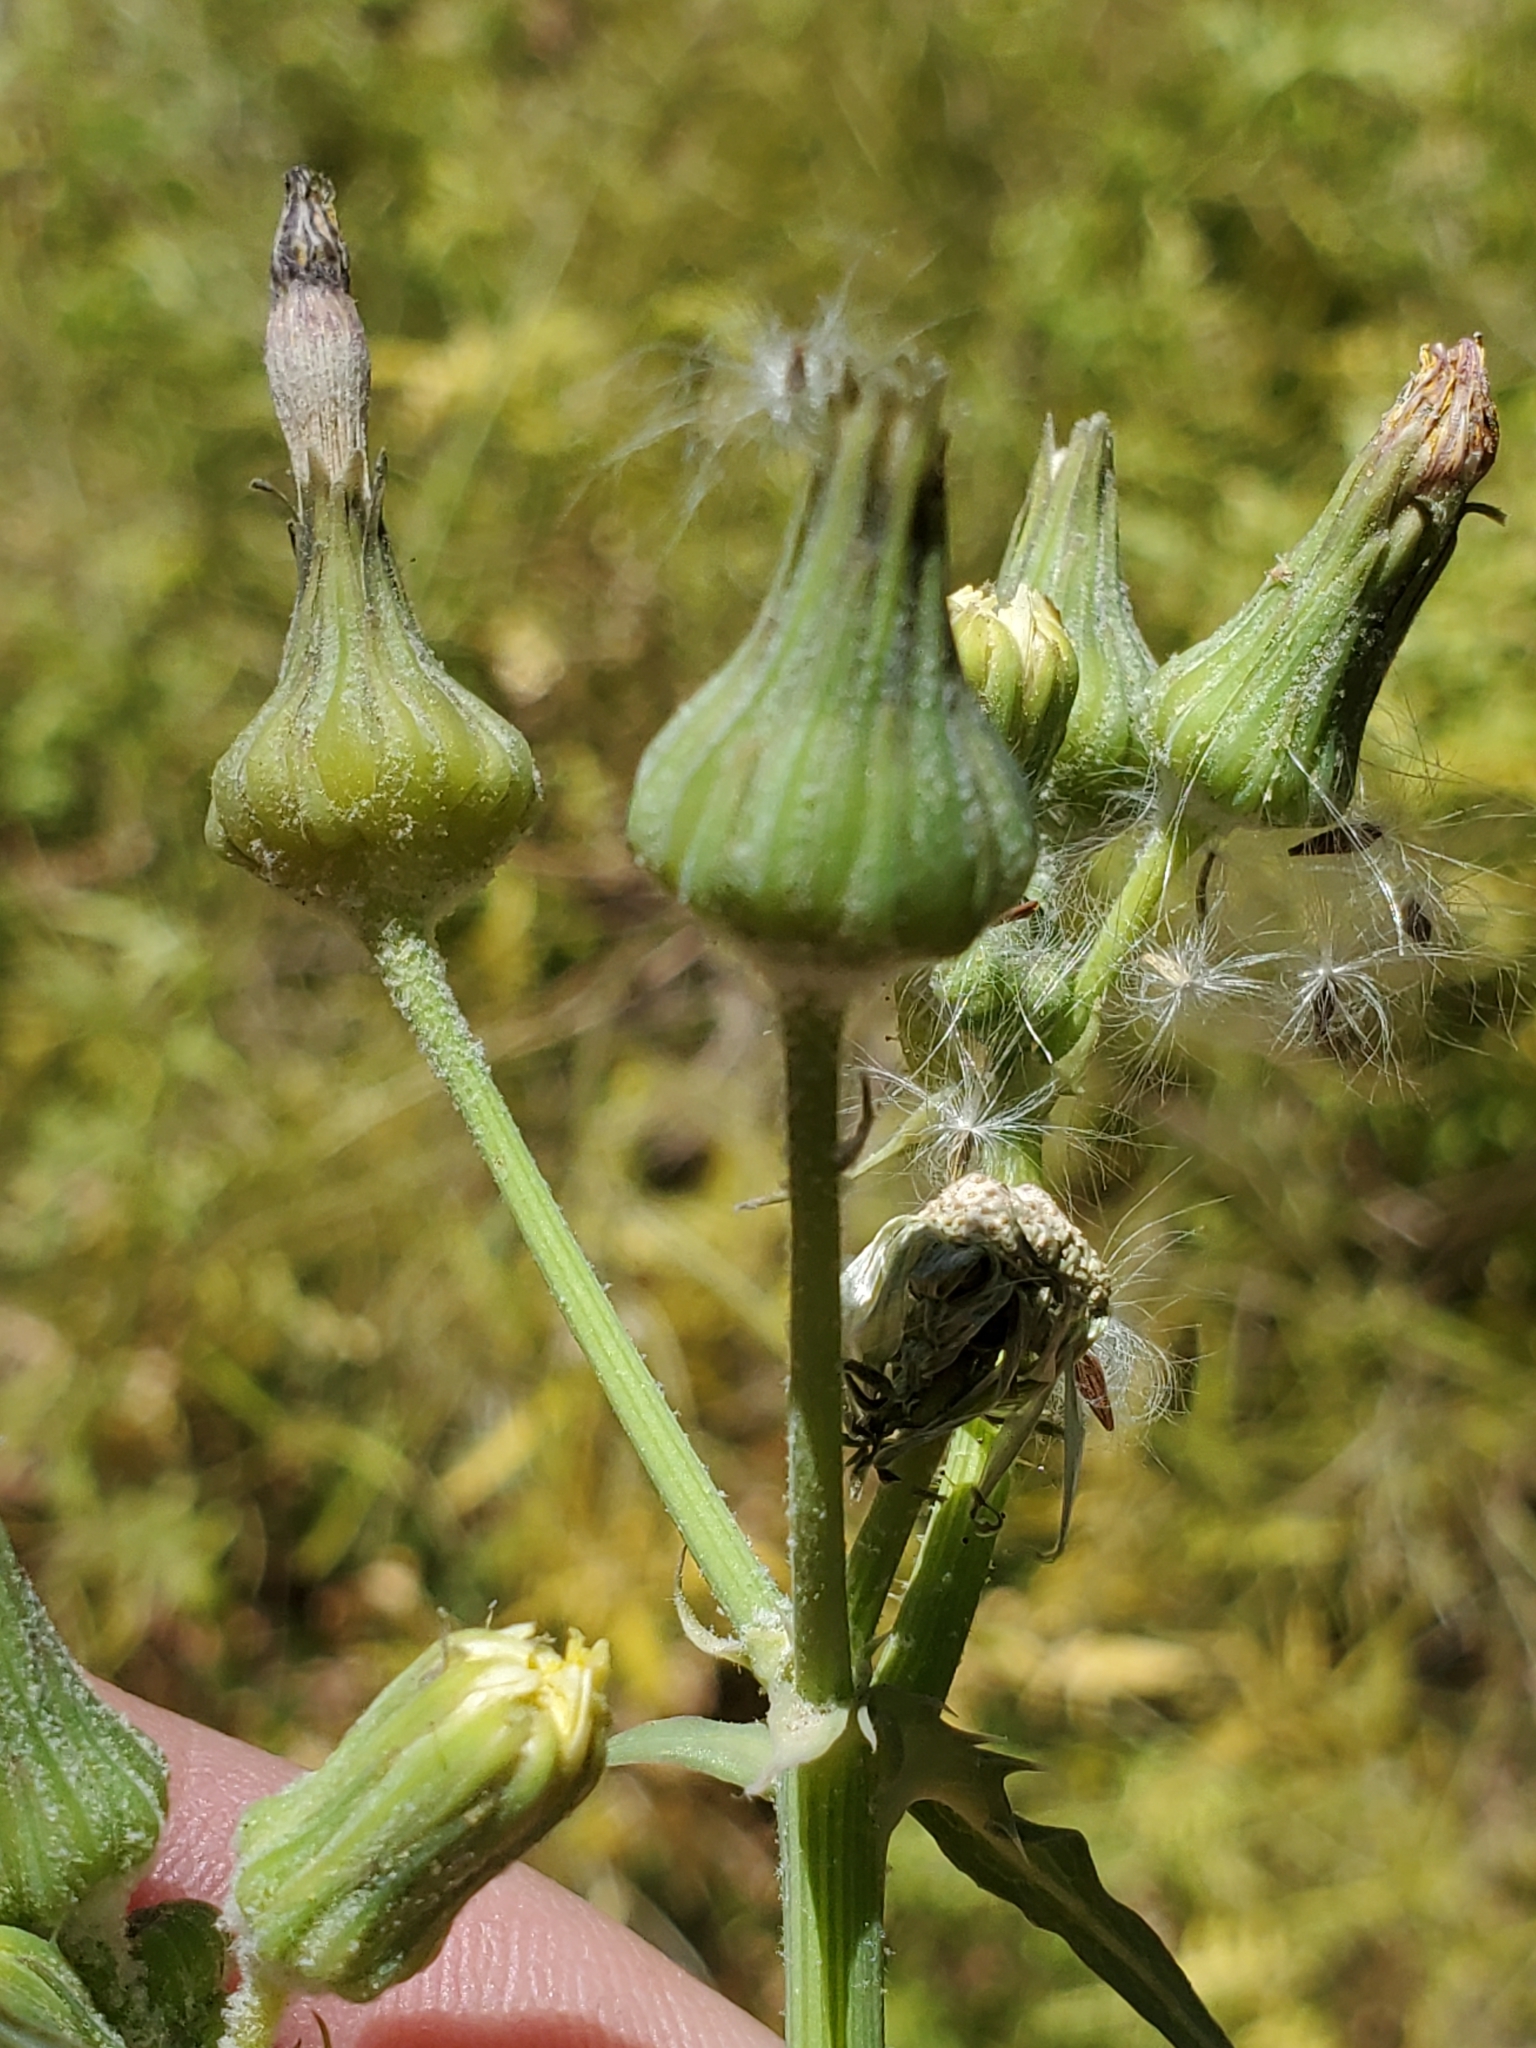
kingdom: Plantae
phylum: Tracheophyta
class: Magnoliopsida
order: Asterales
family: Asteraceae
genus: Sonchus
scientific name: Sonchus asper
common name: Prickly sow-thistle
